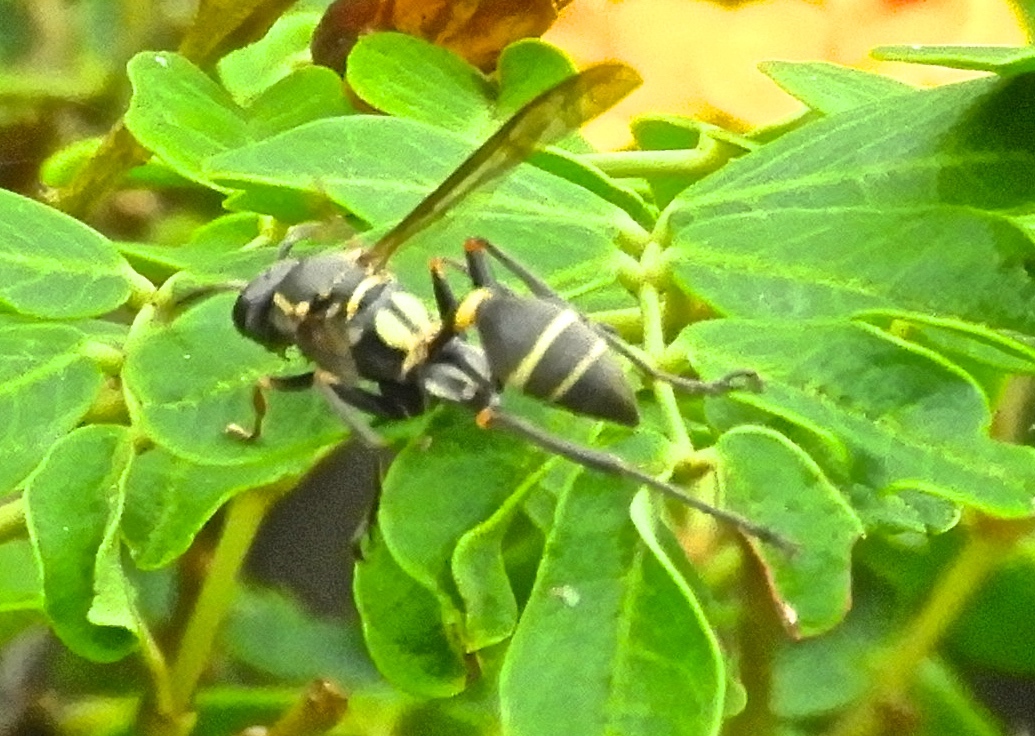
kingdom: Animalia
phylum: Arthropoda
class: Insecta
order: Hymenoptera
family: Vespidae
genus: Mischocyttarus
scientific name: Mischocyttarus rufidens
